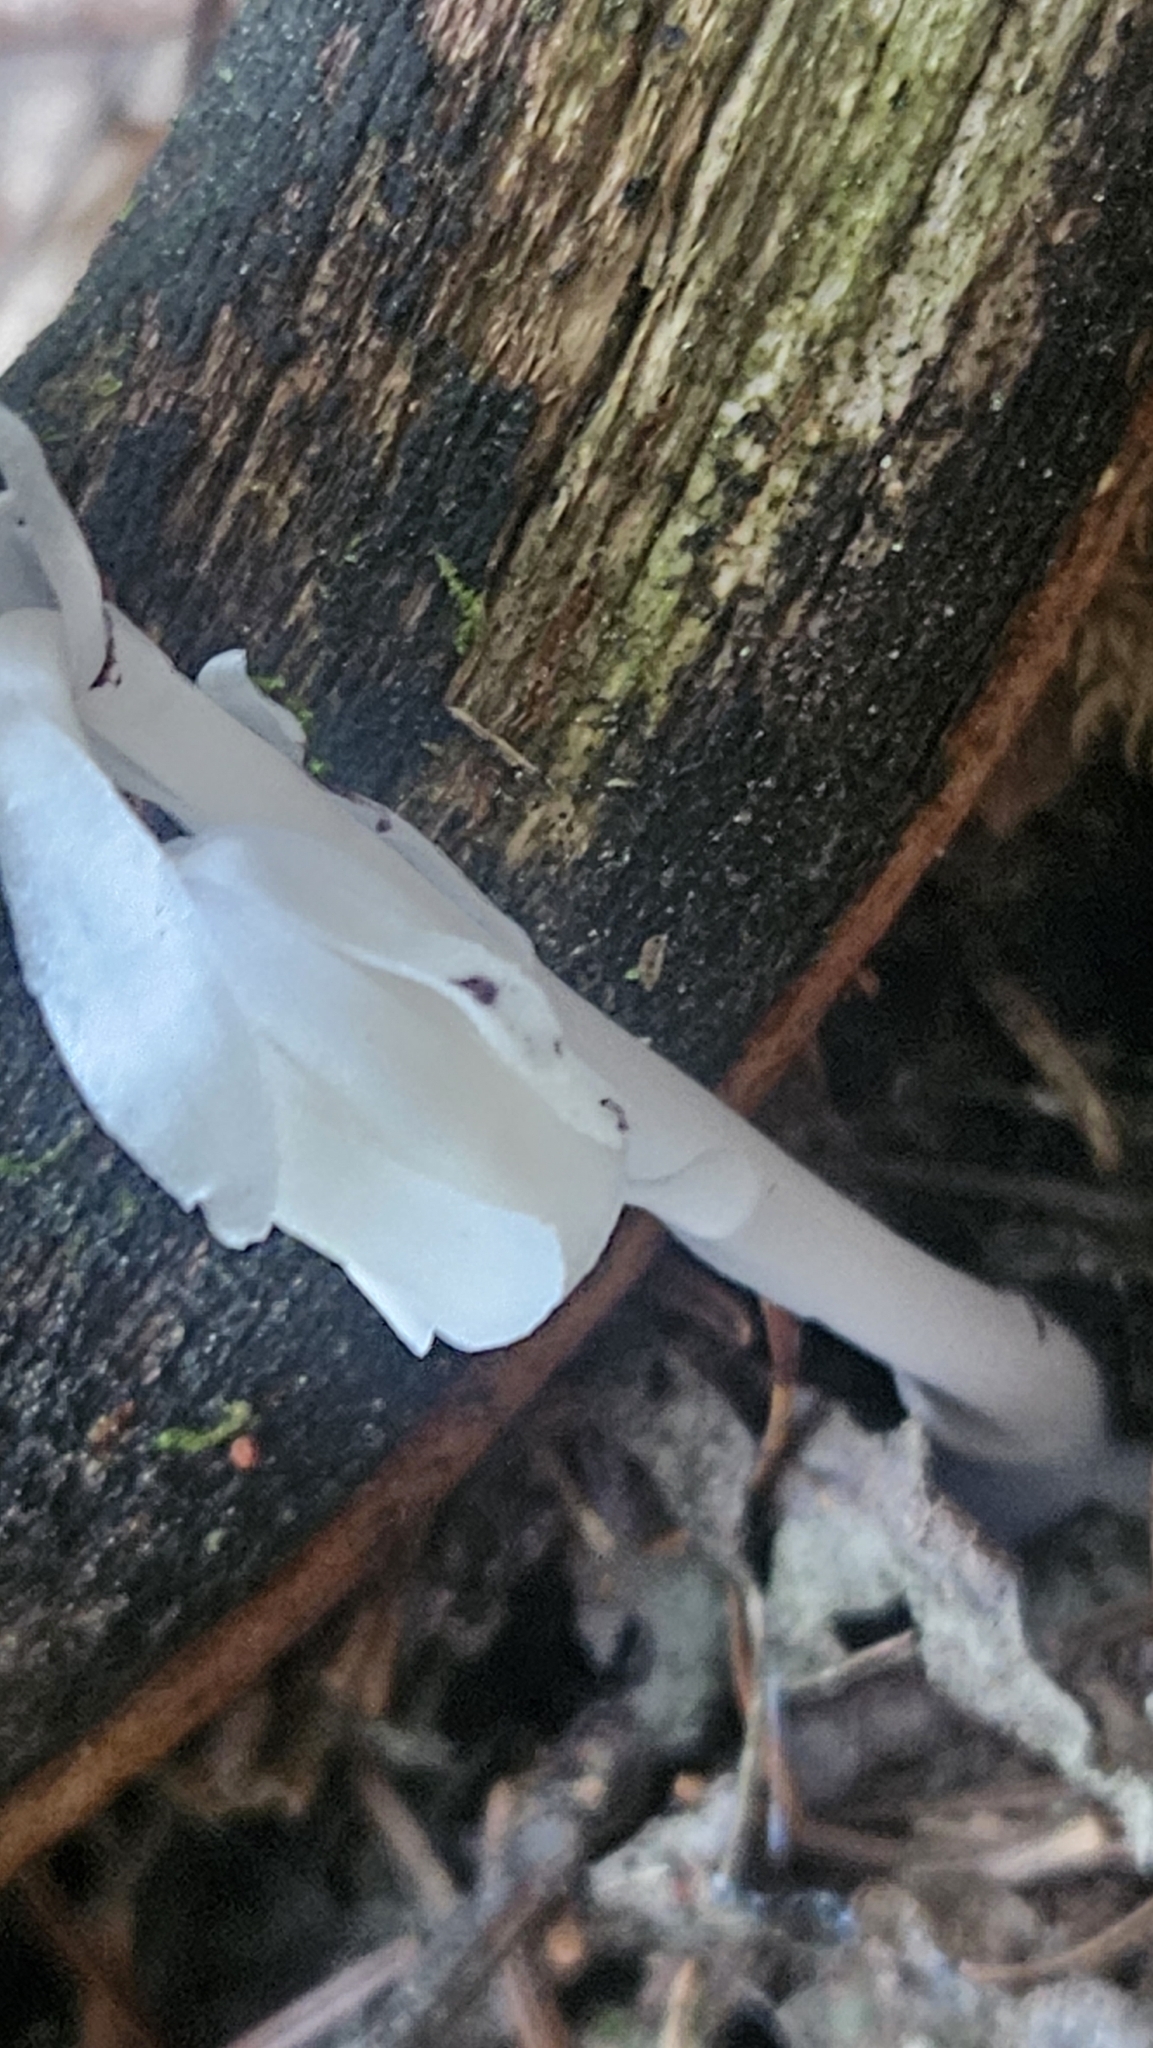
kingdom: Plantae
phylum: Tracheophyta
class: Magnoliopsida
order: Ericales
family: Ericaceae
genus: Monotropa
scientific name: Monotropa uniflora
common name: Convulsion root
